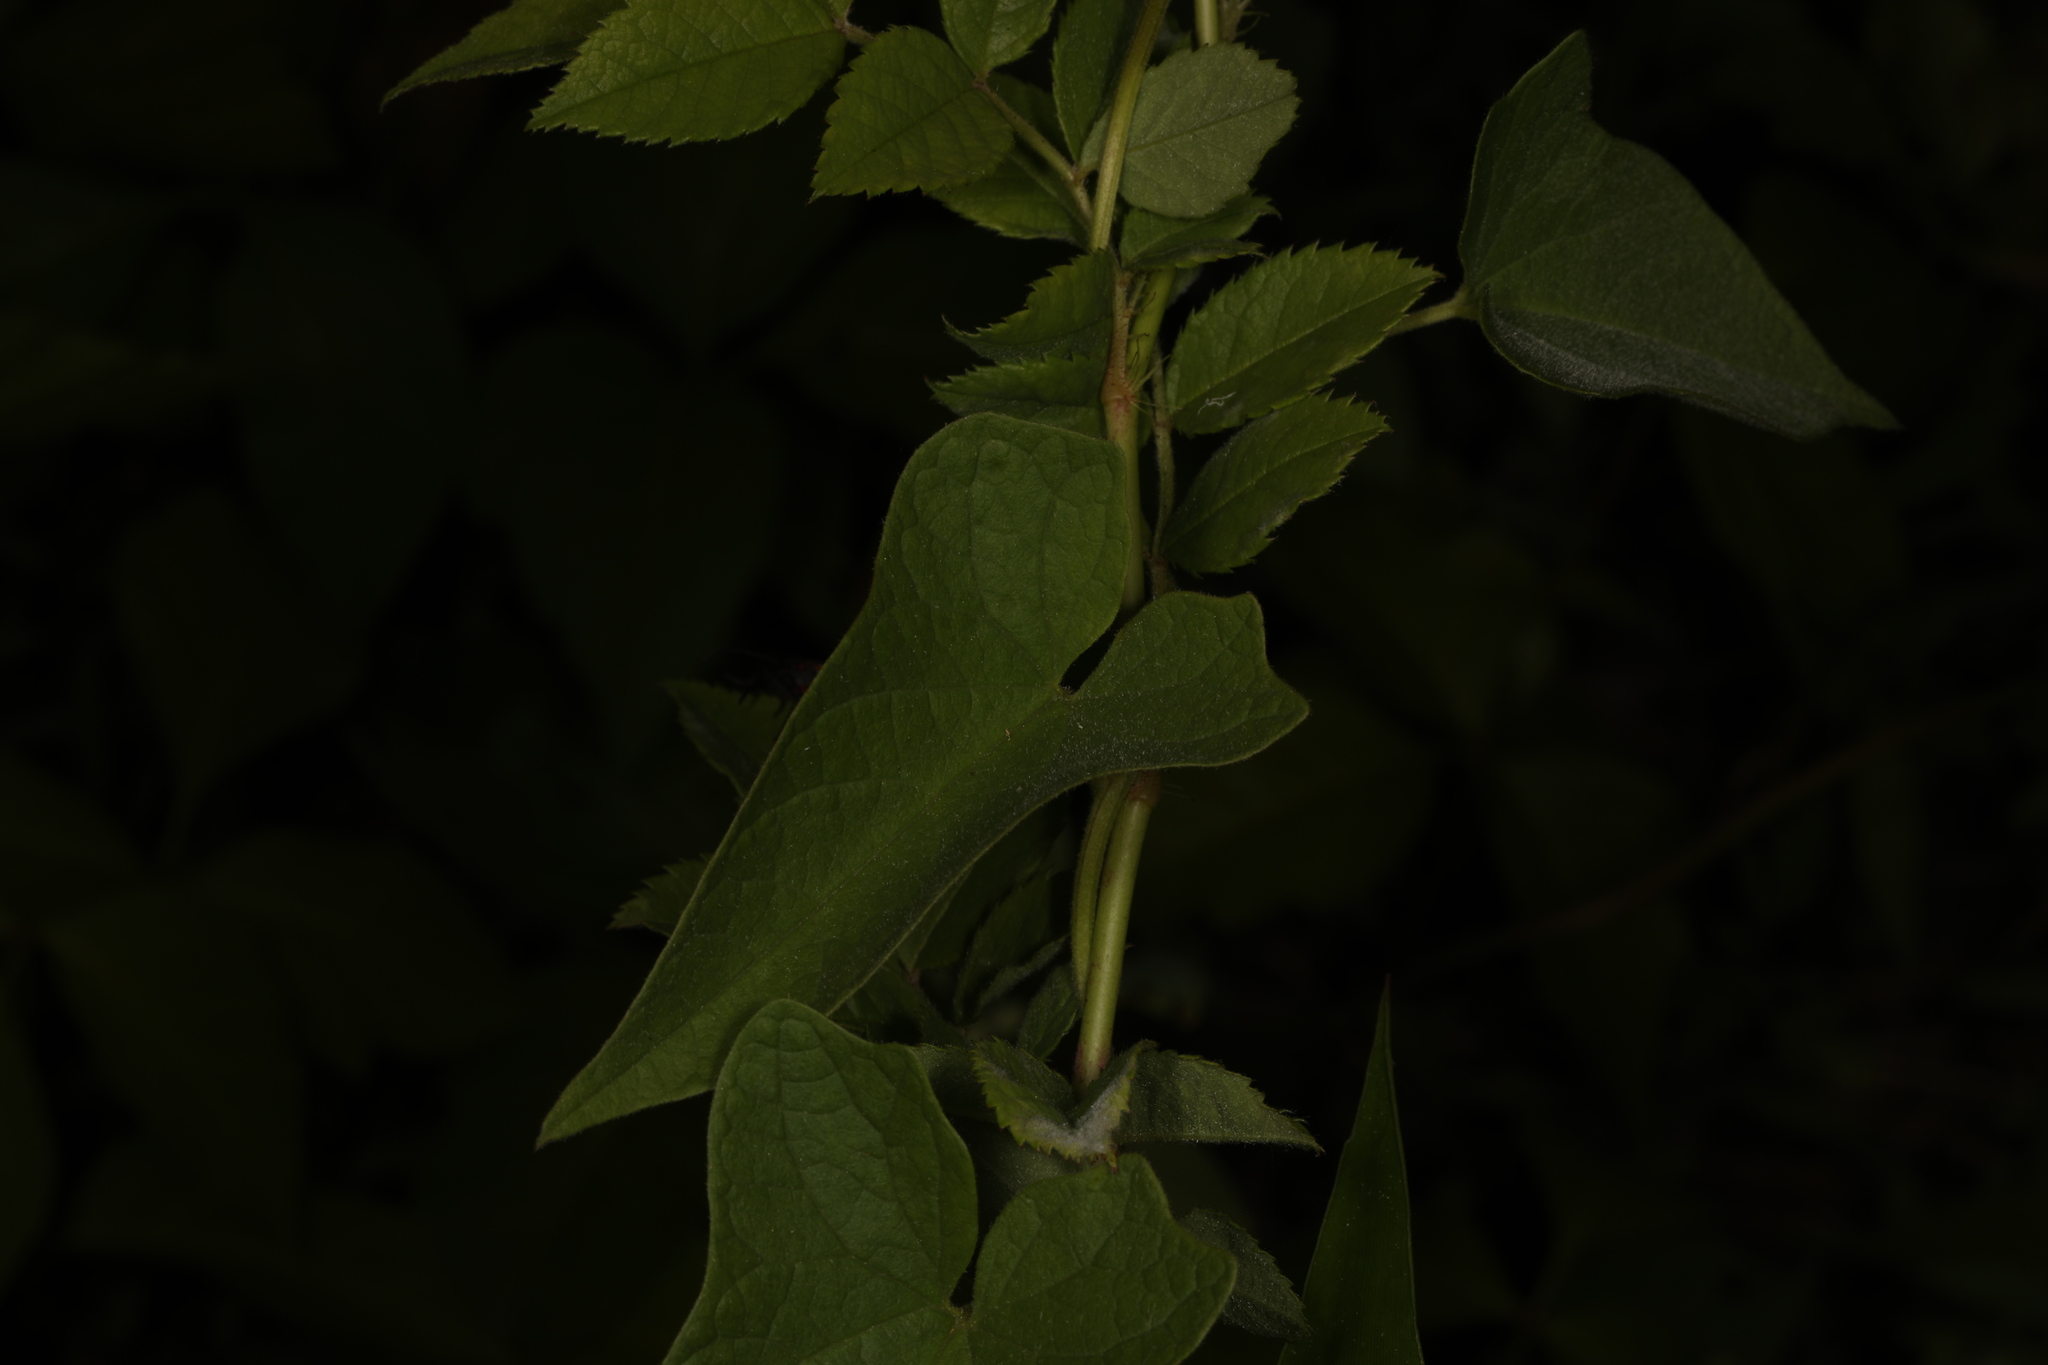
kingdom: Plantae
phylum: Tracheophyta
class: Magnoliopsida
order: Solanales
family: Convolvulaceae
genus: Calystegia
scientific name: Calystegia sepium
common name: Hedge bindweed
